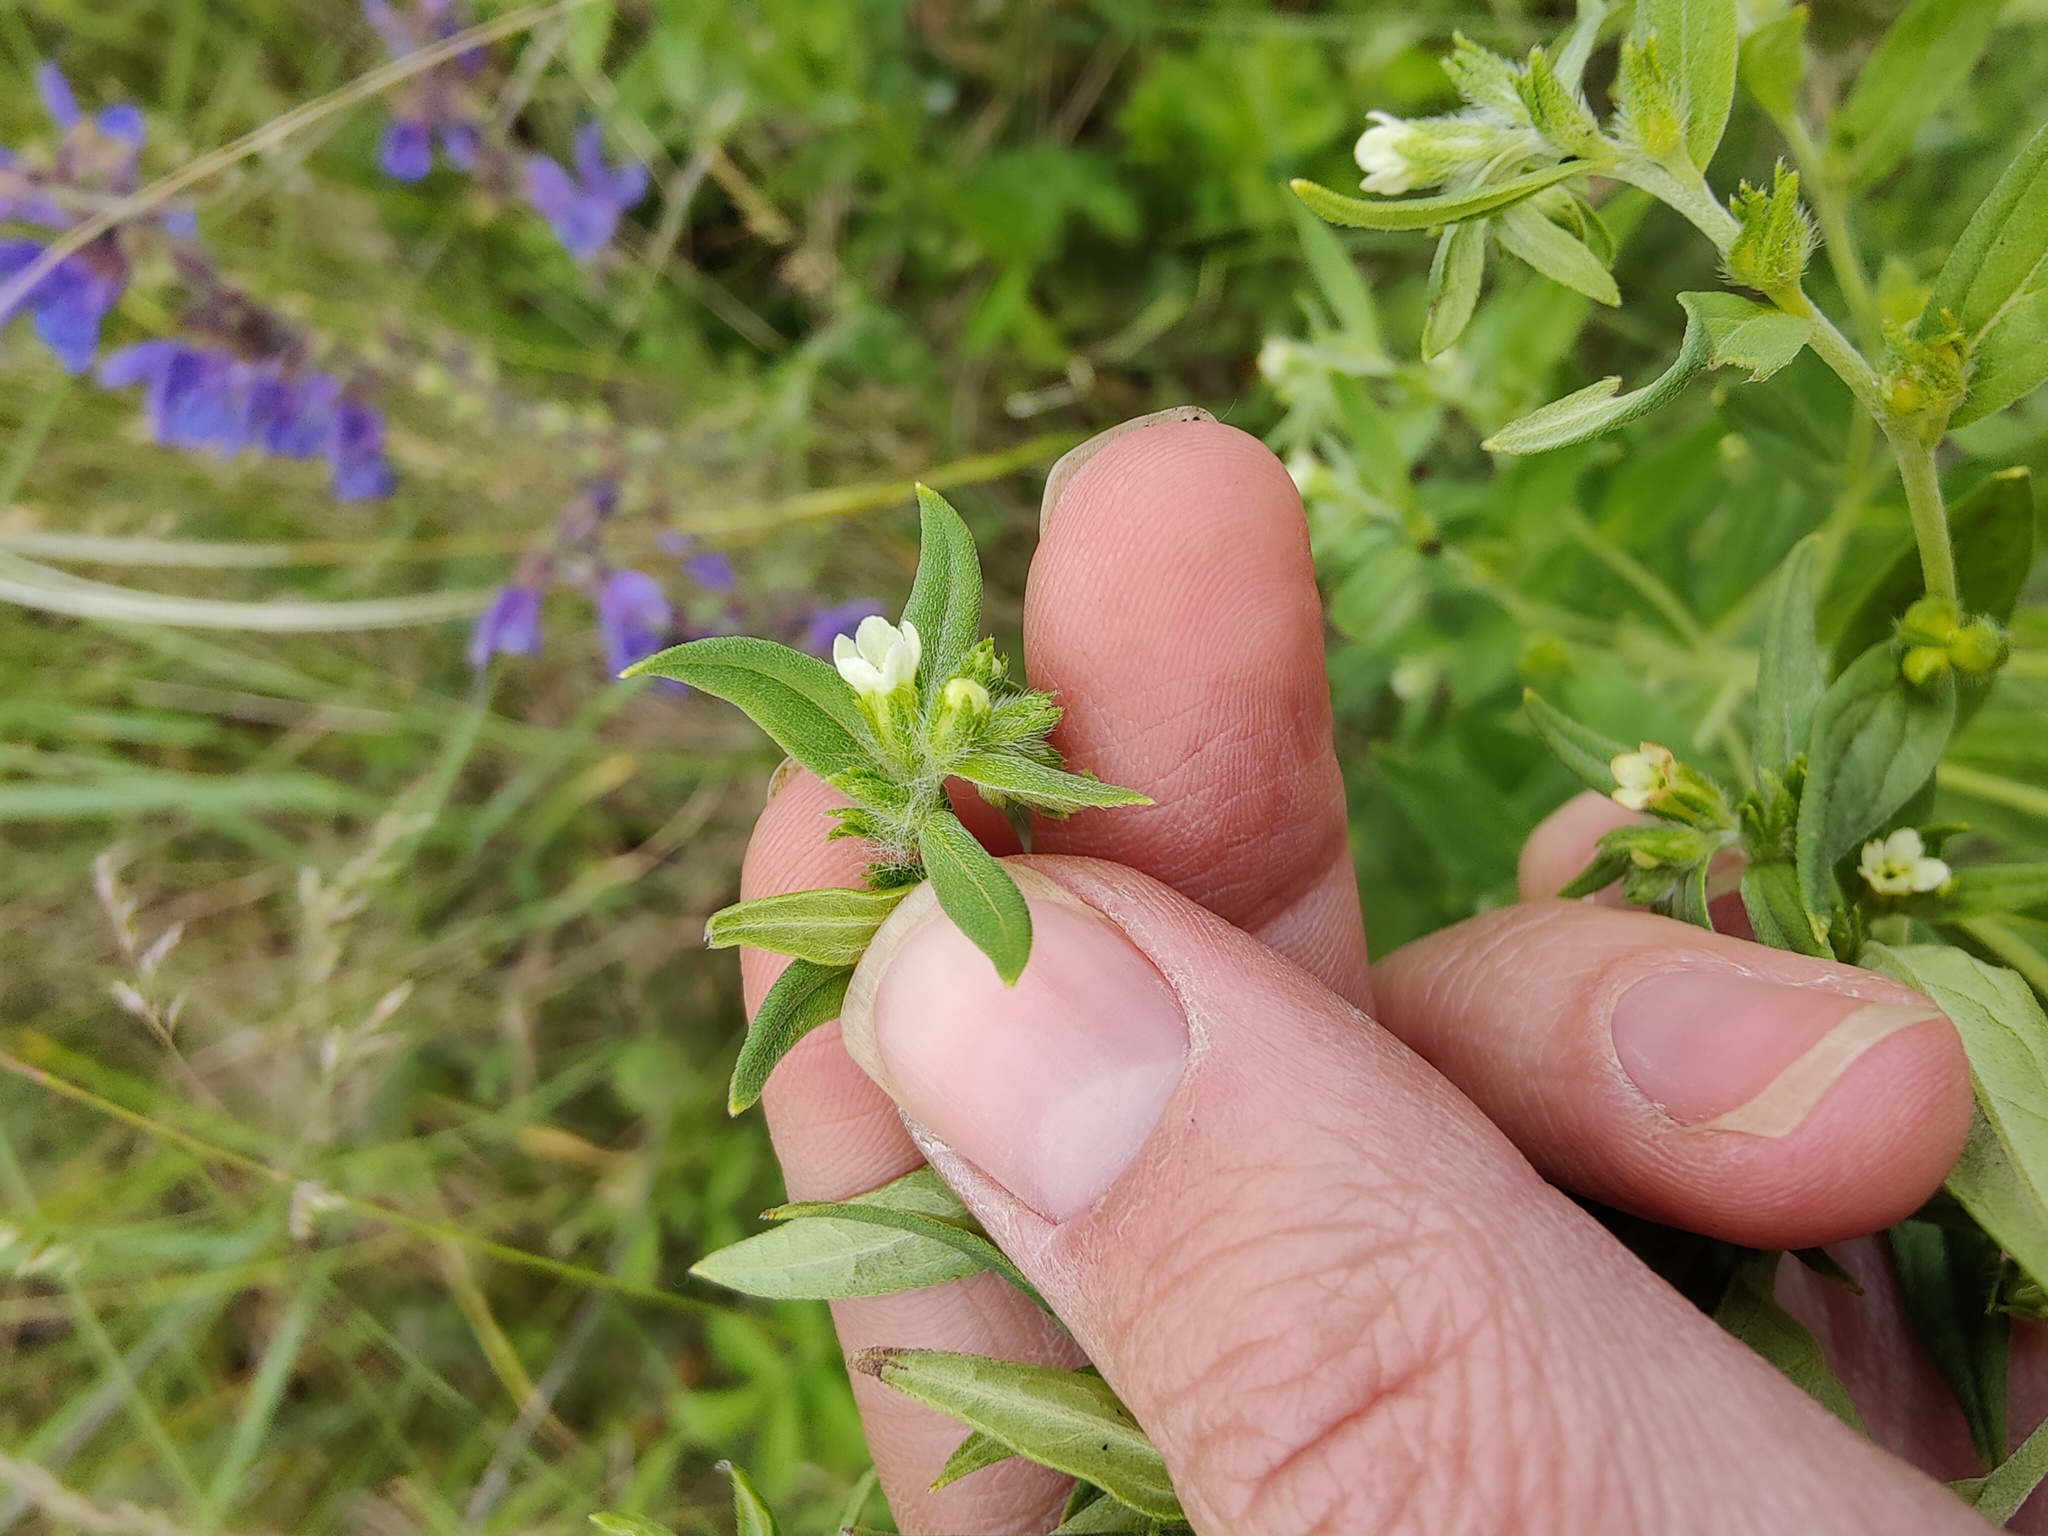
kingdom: Plantae
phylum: Tracheophyta
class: Magnoliopsida
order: Boraginales
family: Boraginaceae
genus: Lithospermum
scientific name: Lithospermum officinale
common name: Common gromwell
